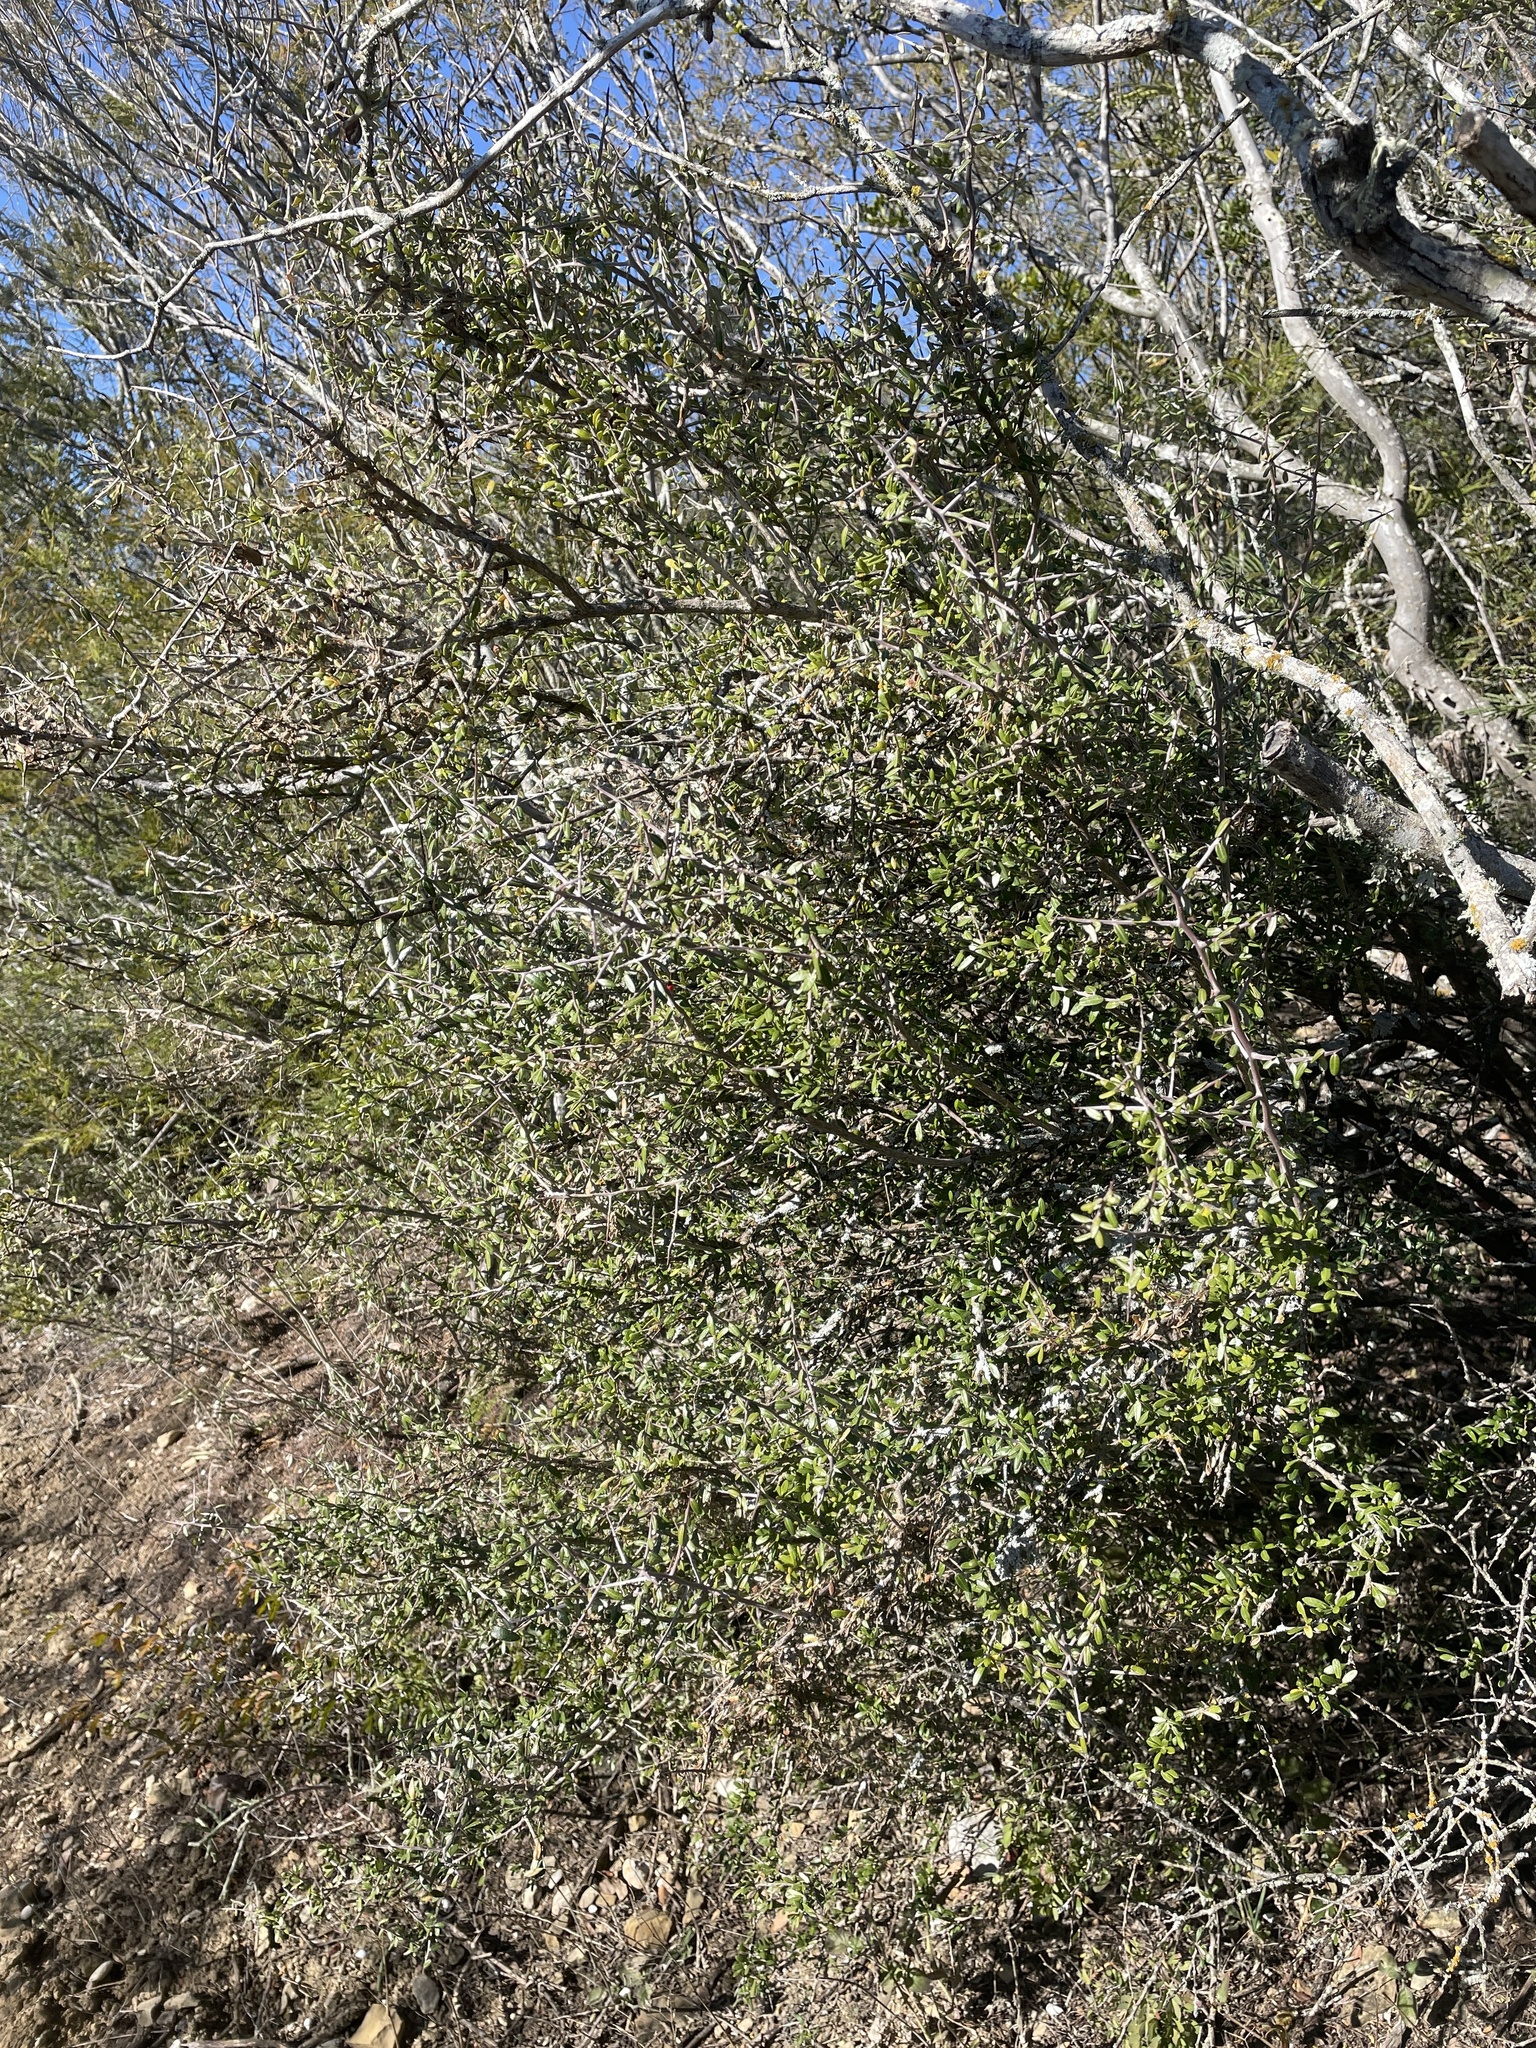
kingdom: Plantae
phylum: Tracheophyta
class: Magnoliopsida
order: Sapindales
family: Simaroubaceae
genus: Castela
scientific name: Castela erecta
